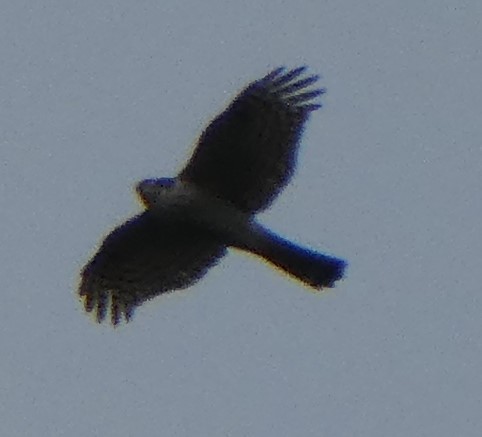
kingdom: Animalia
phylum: Chordata
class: Aves
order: Accipitriformes
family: Accipitridae
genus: Accipiter
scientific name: Accipiter nisus
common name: Eurasian sparrowhawk
